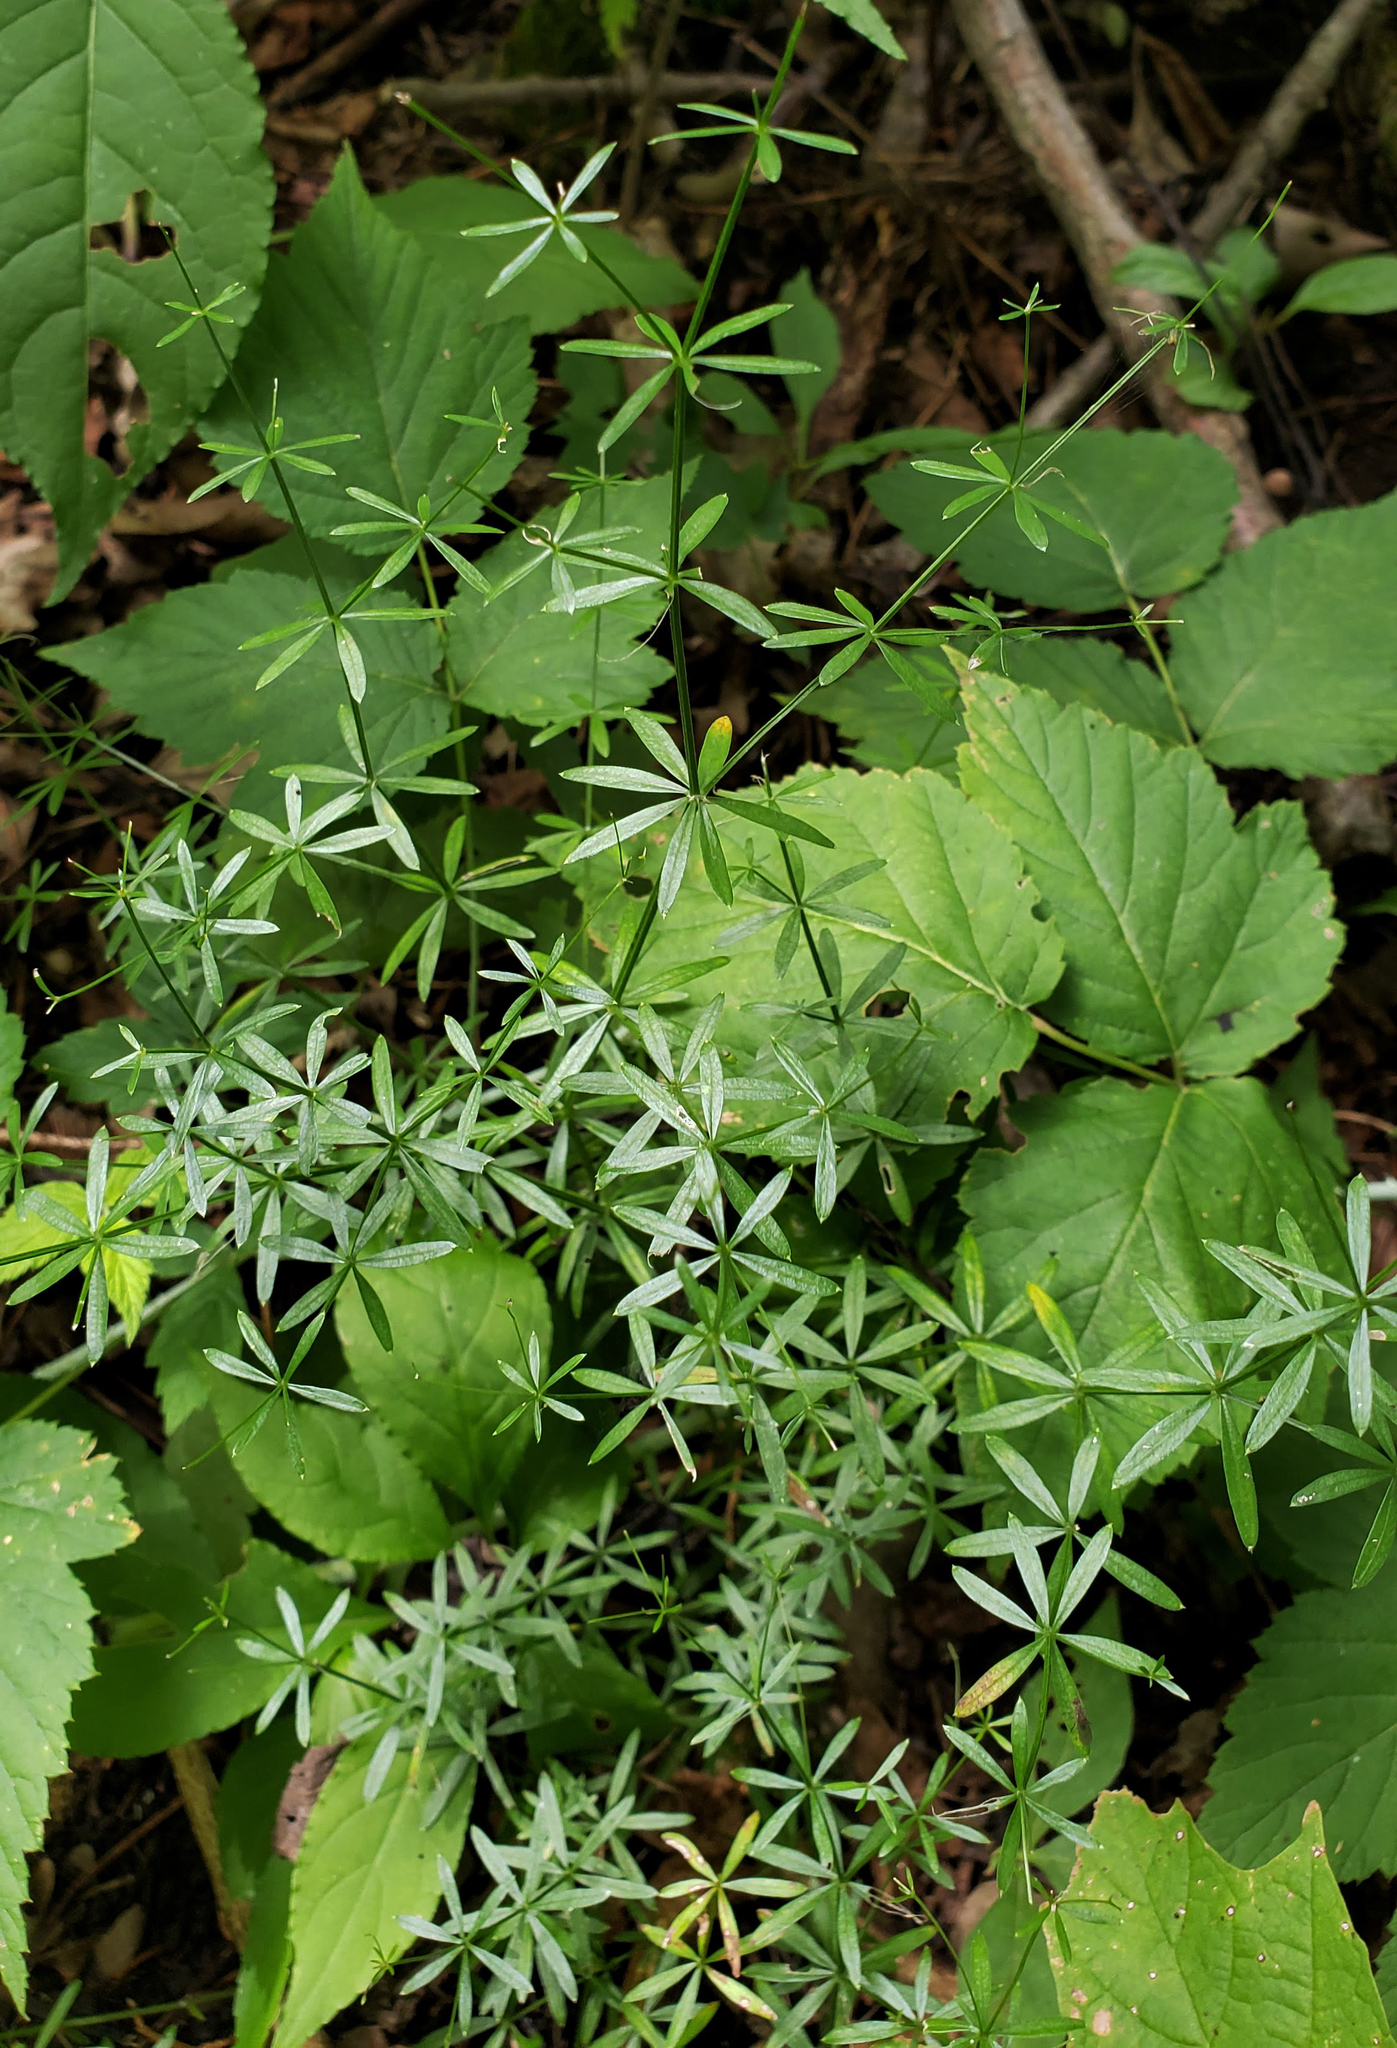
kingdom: Plantae
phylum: Tracheophyta
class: Magnoliopsida
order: Gentianales
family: Rubiaceae
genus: Galium
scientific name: Galium concinnum
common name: Shining bedstraw
